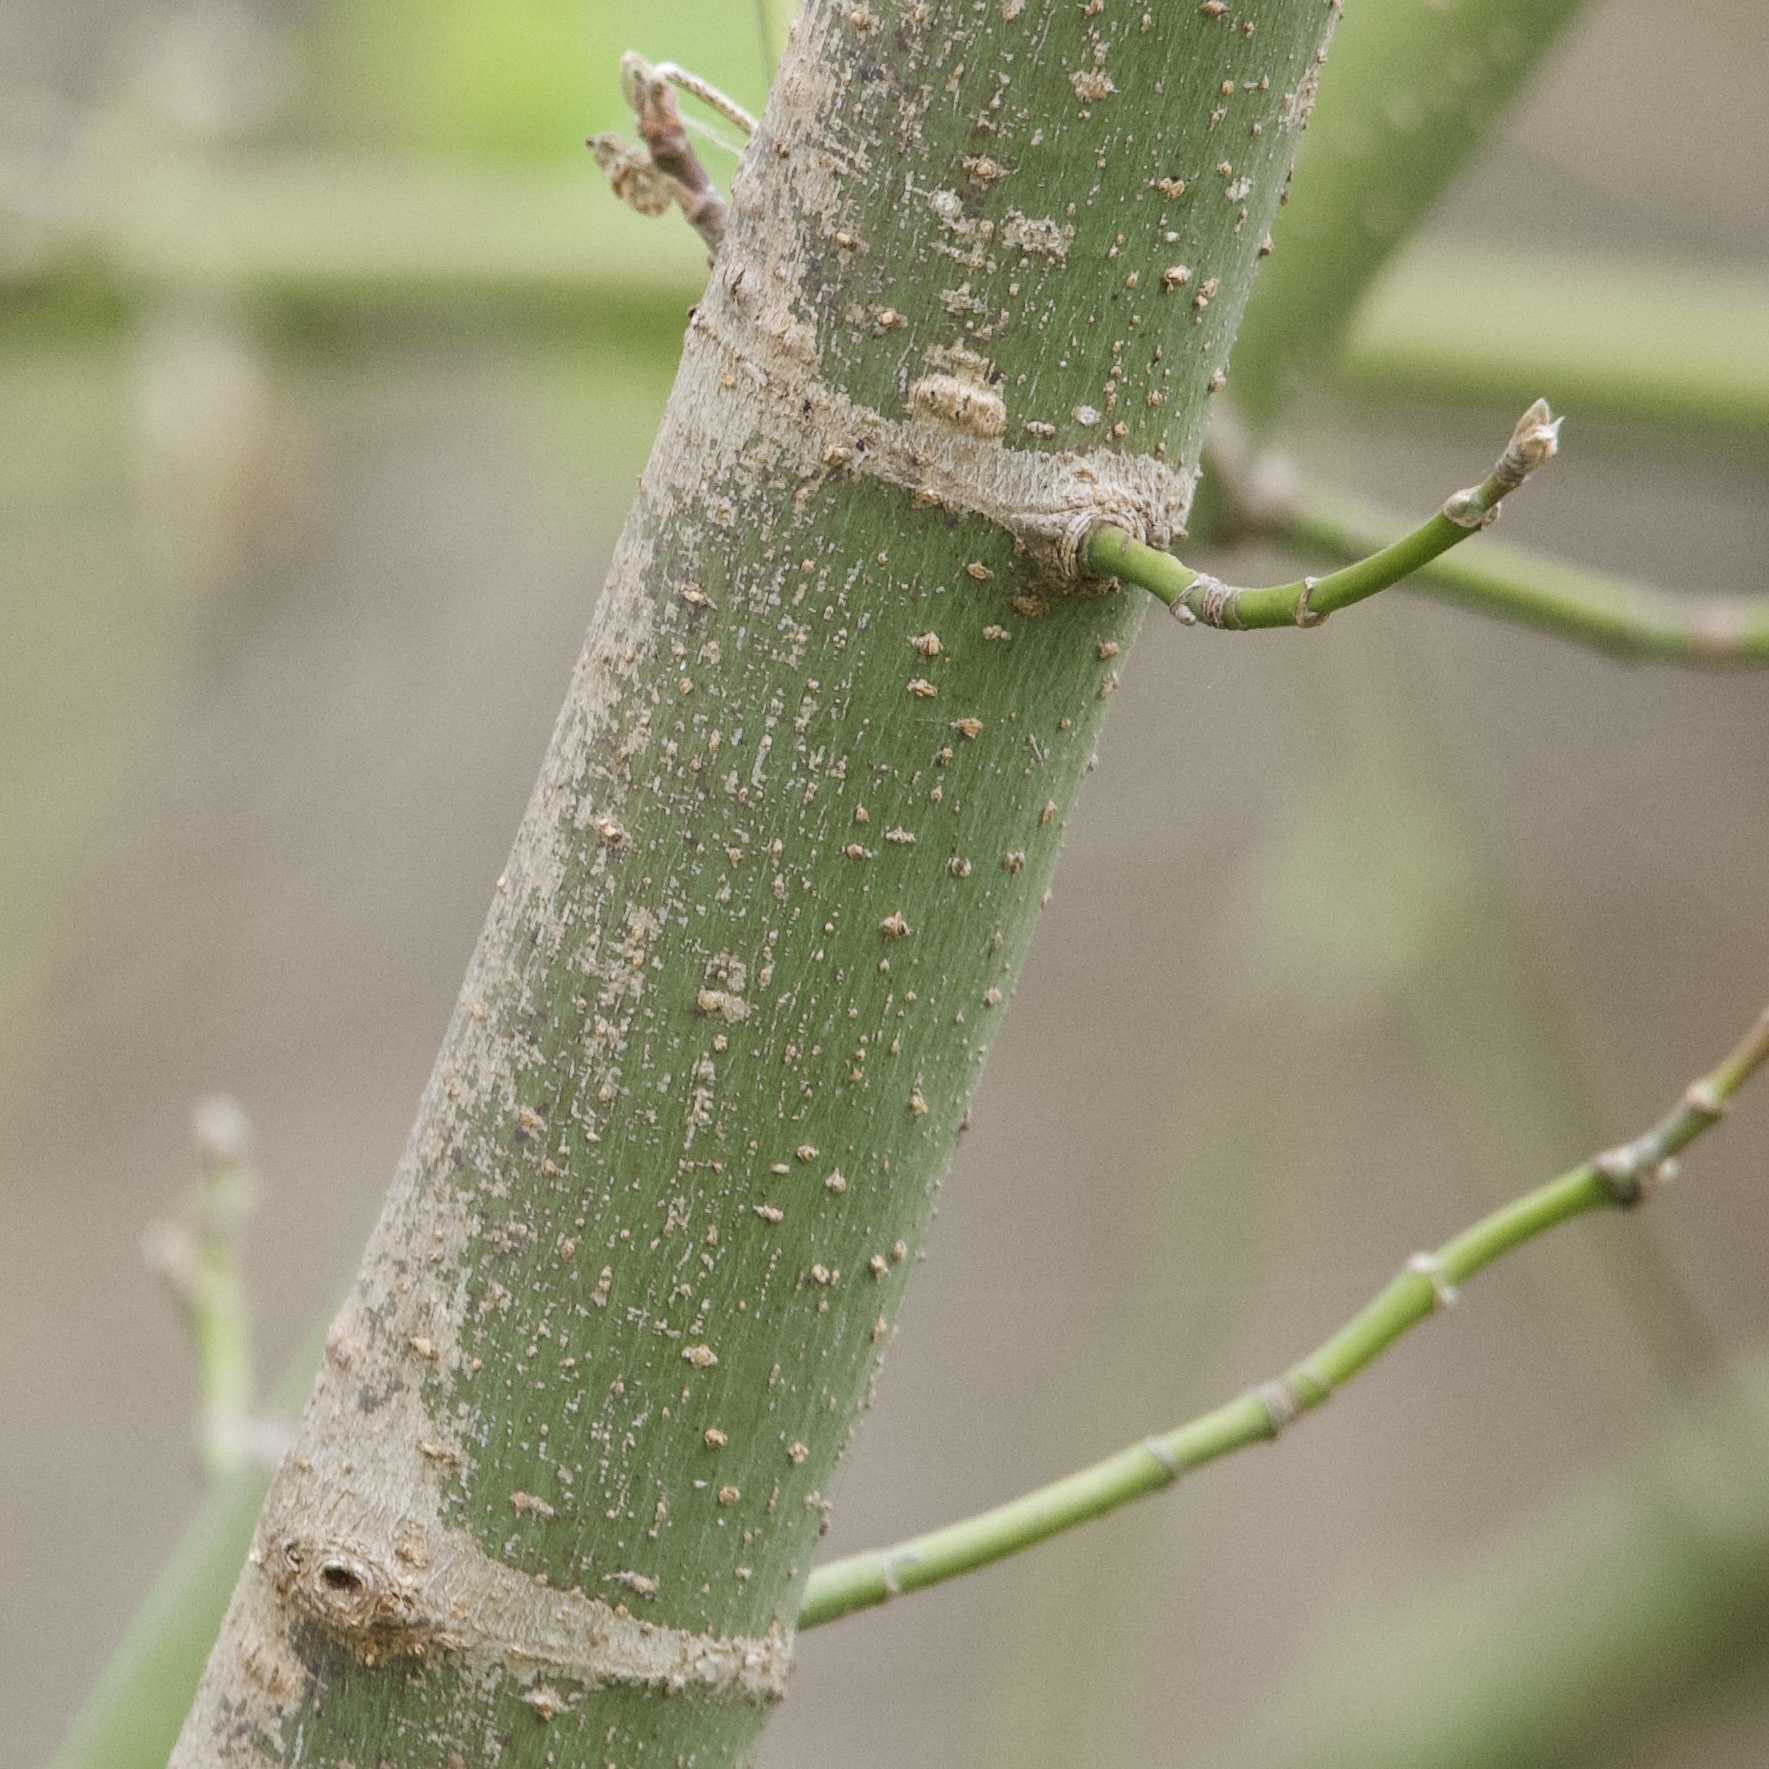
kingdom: Plantae
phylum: Tracheophyta
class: Magnoliopsida
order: Sapindales
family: Sapindaceae
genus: Acer
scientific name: Acer negundo
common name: Ashleaf maple
